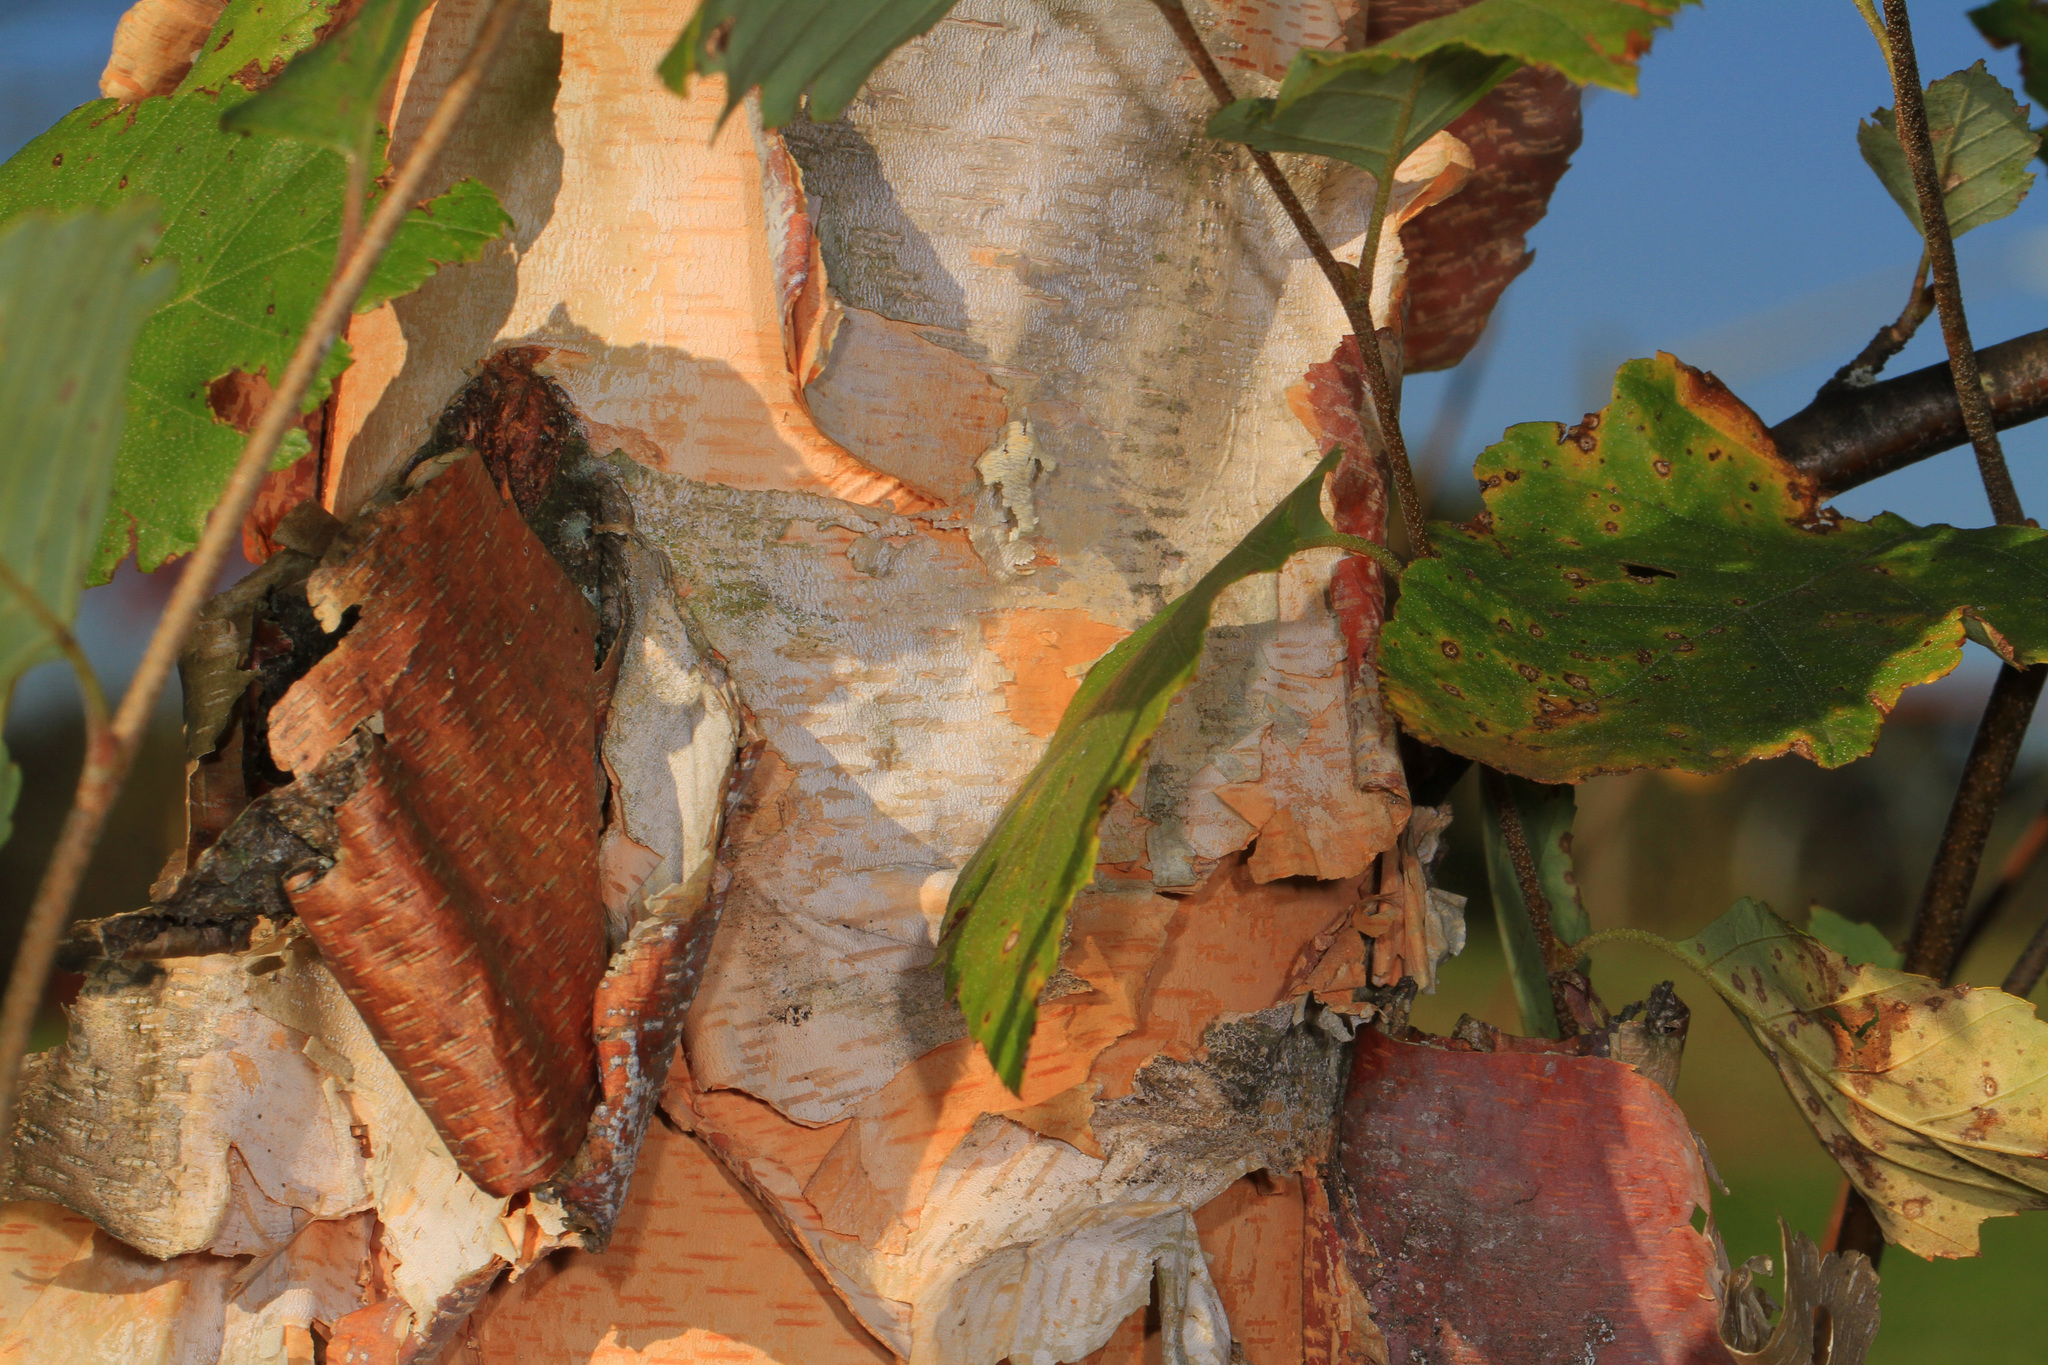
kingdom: Plantae
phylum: Tracheophyta
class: Magnoliopsida
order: Fagales
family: Betulaceae
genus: Betula
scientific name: Betula nigra
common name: Black birch
